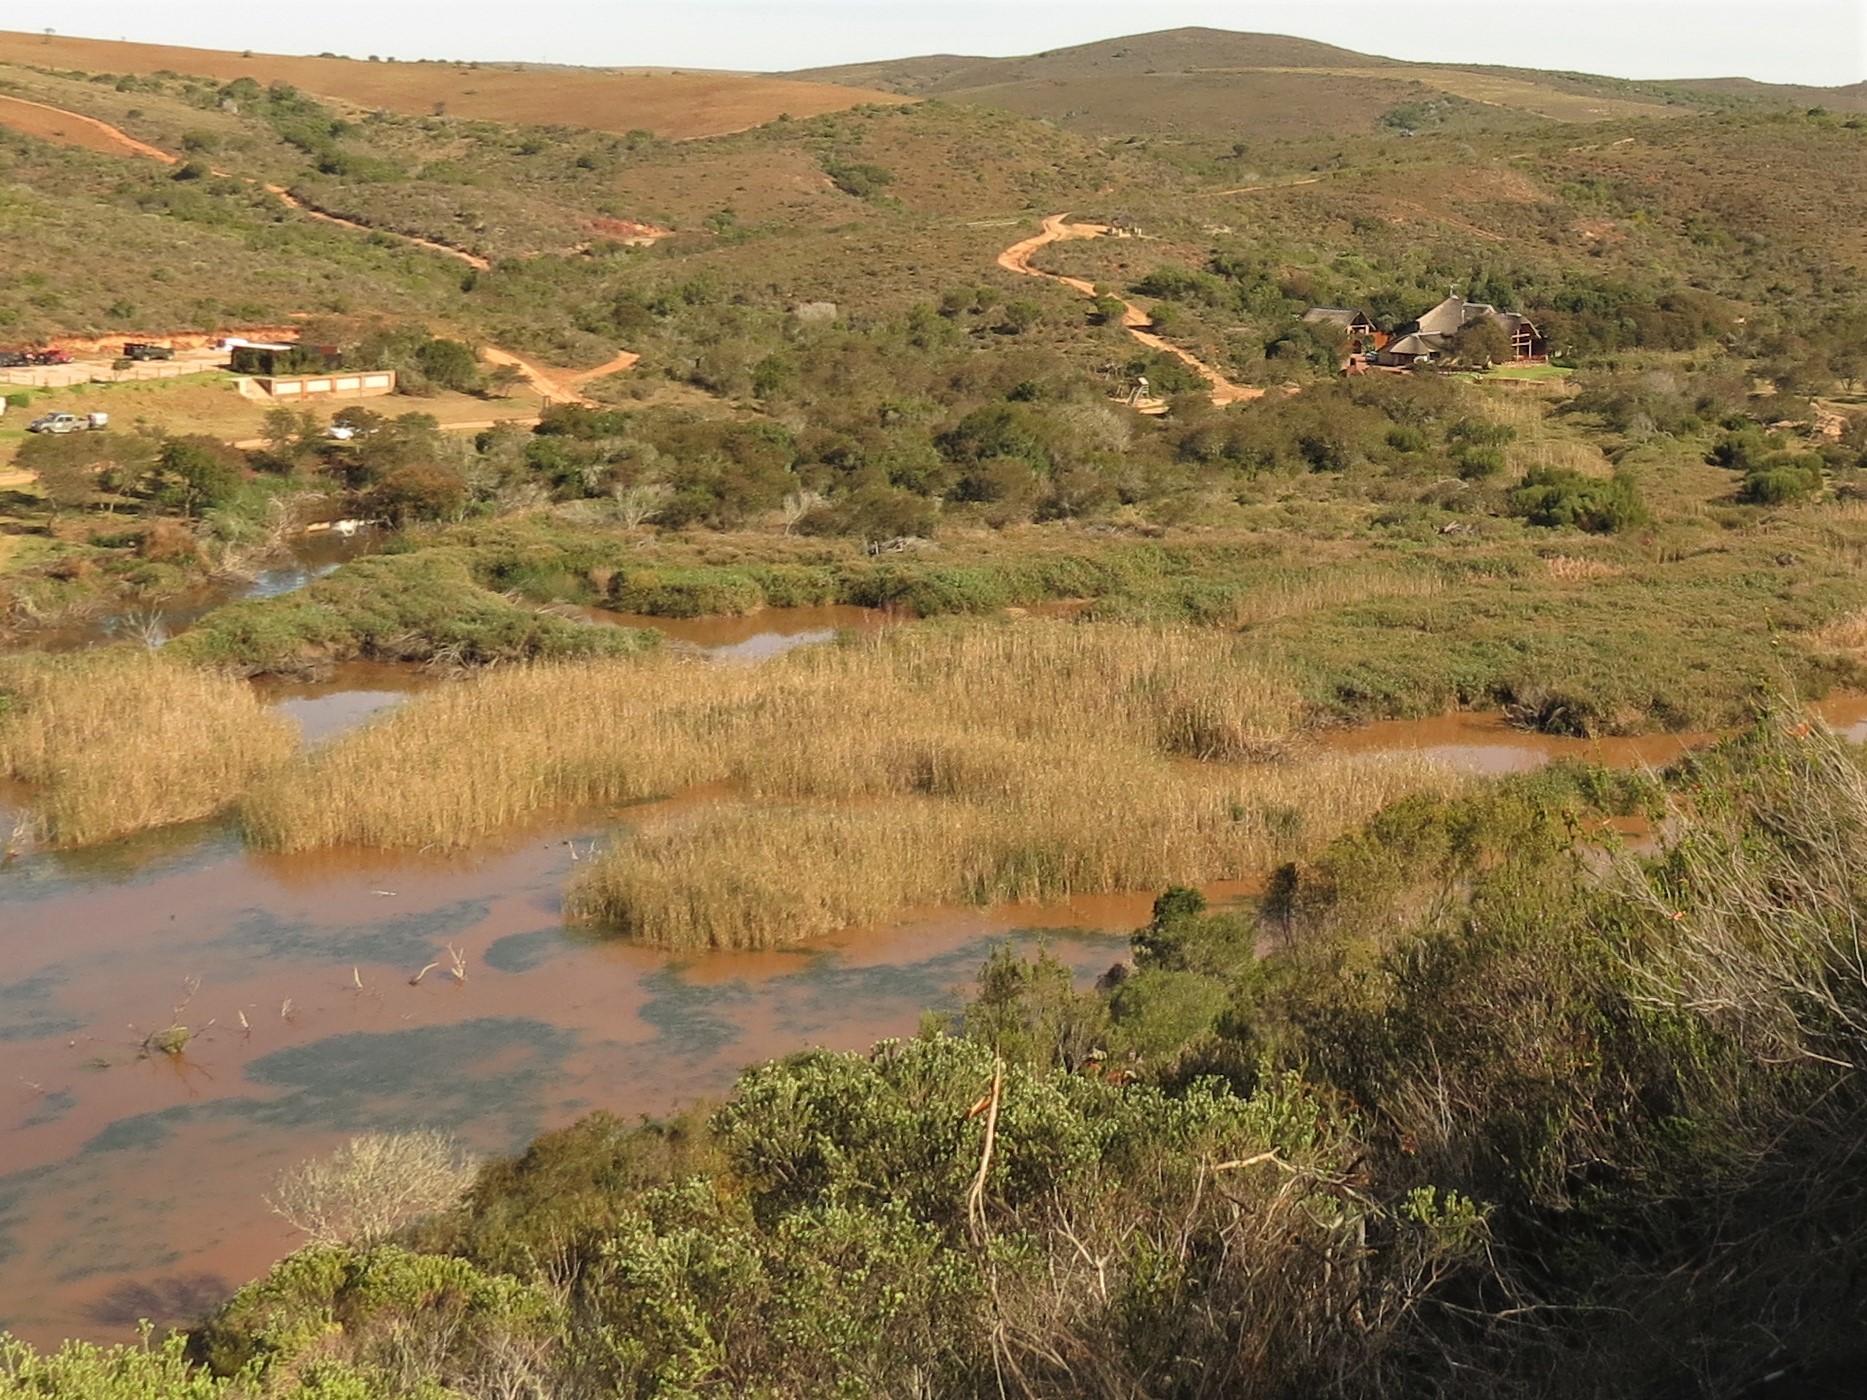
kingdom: Plantae
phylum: Tracheophyta
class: Liliopsida
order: Poales
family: Poaceae
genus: Phragmites
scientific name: Phragmites australis
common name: Common reed
